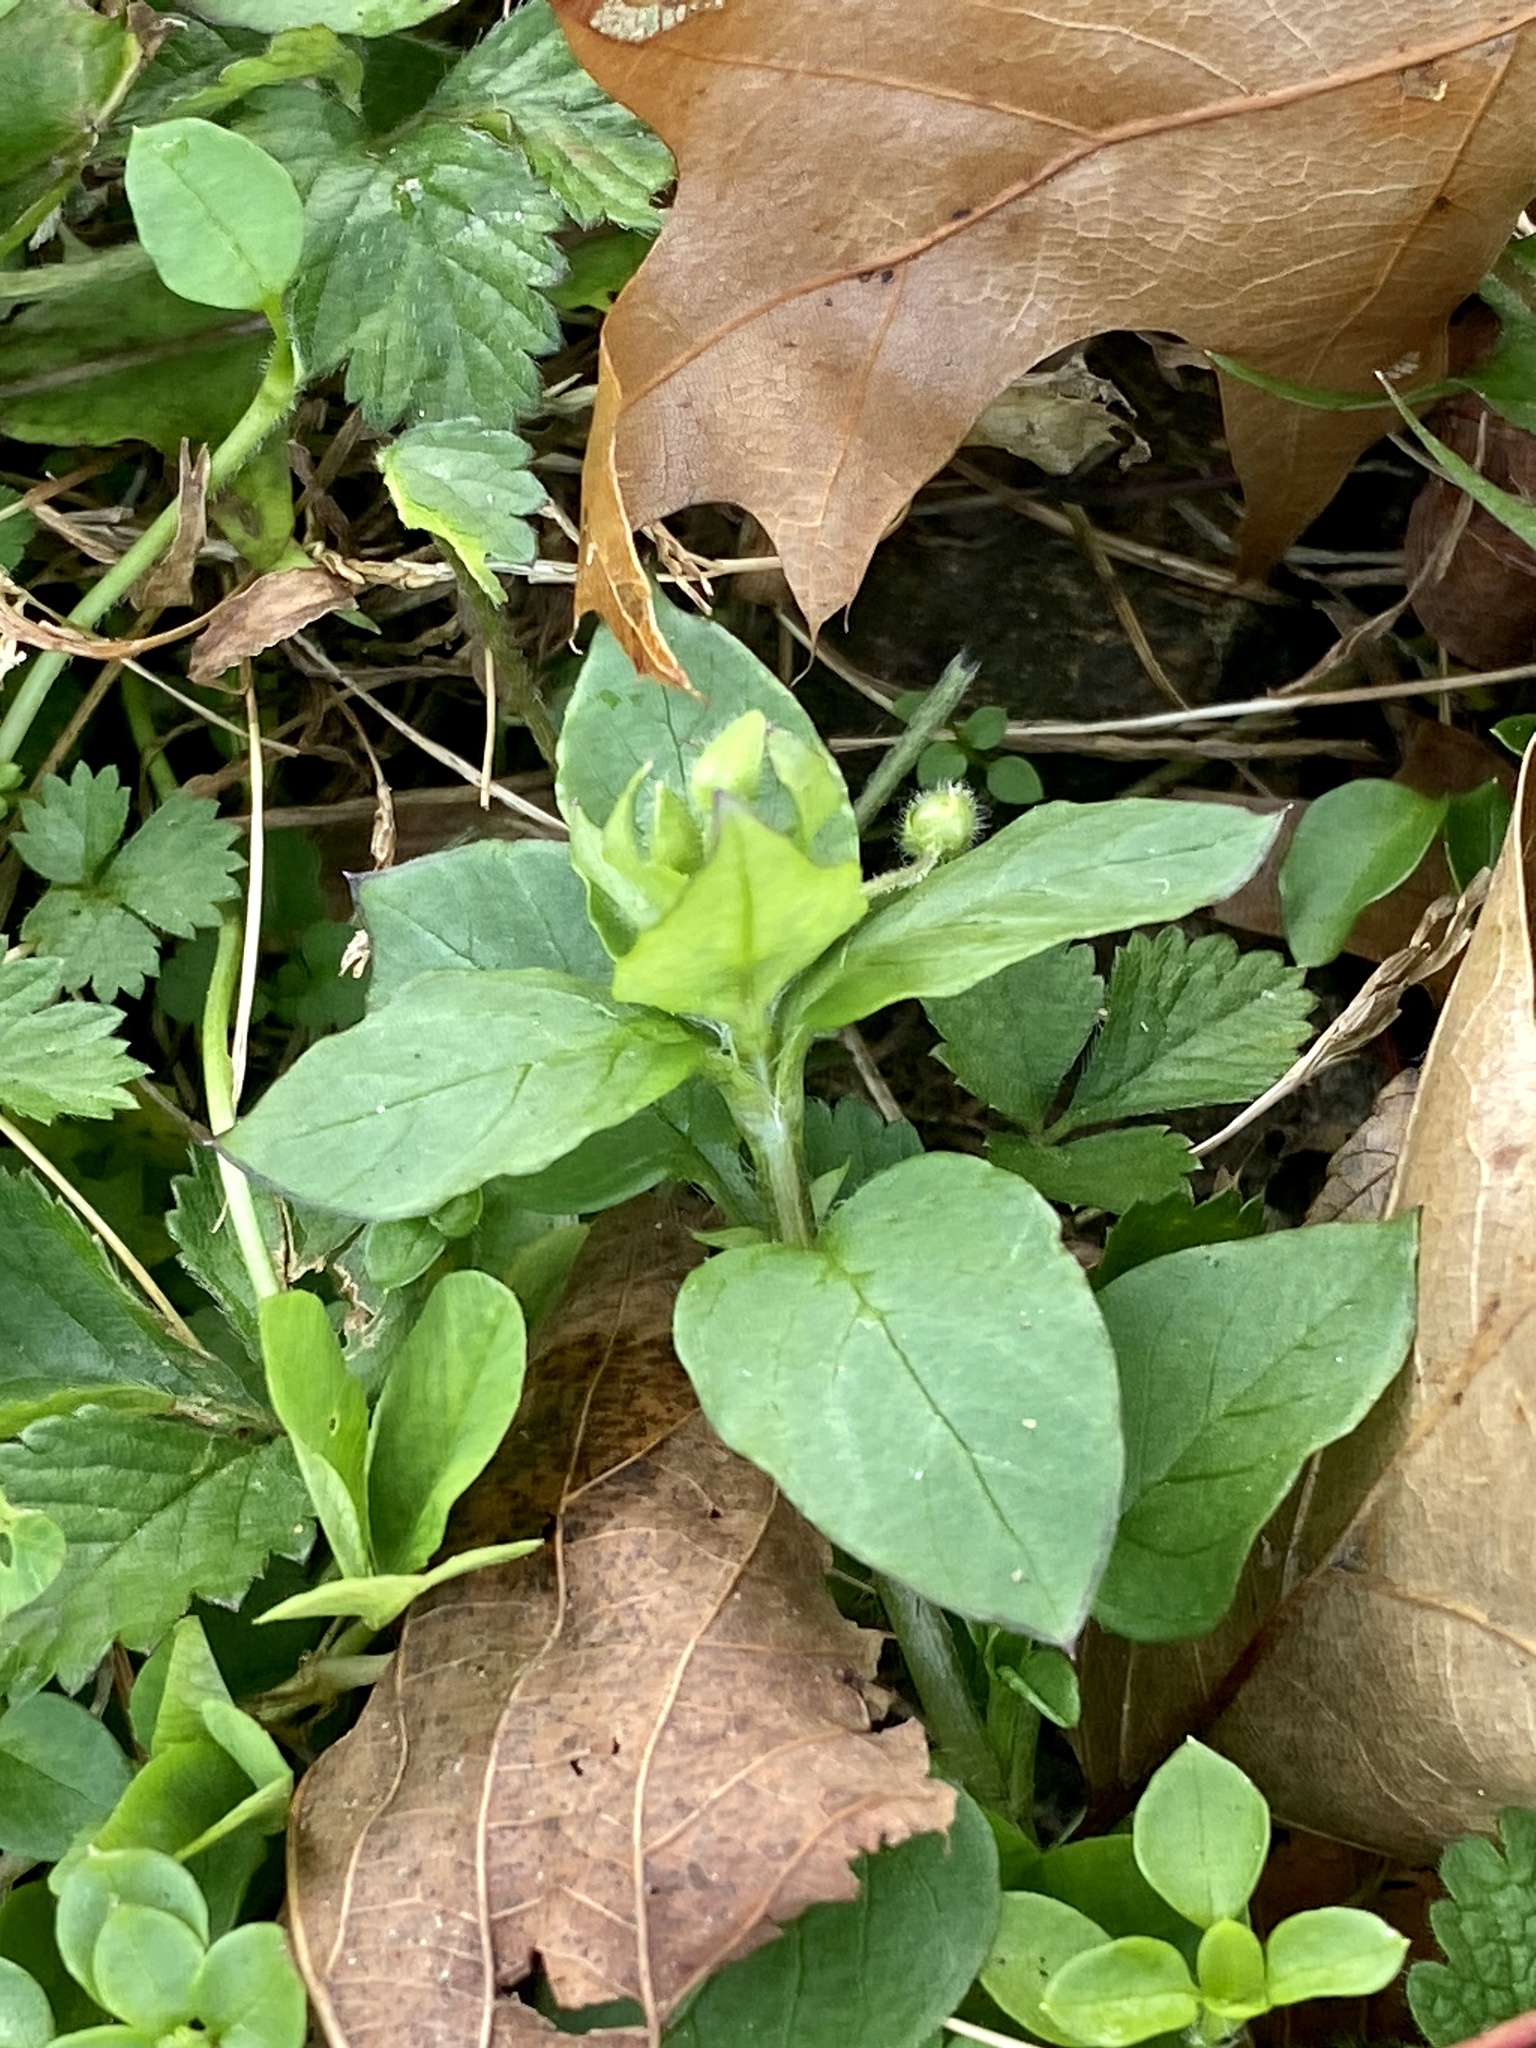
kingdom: Plantae
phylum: Tracheophyta
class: Magnoliopsida
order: Caryophyllales
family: Caryophyllaceae
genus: Stellaria
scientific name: Stellaria media
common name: Common chickweed
